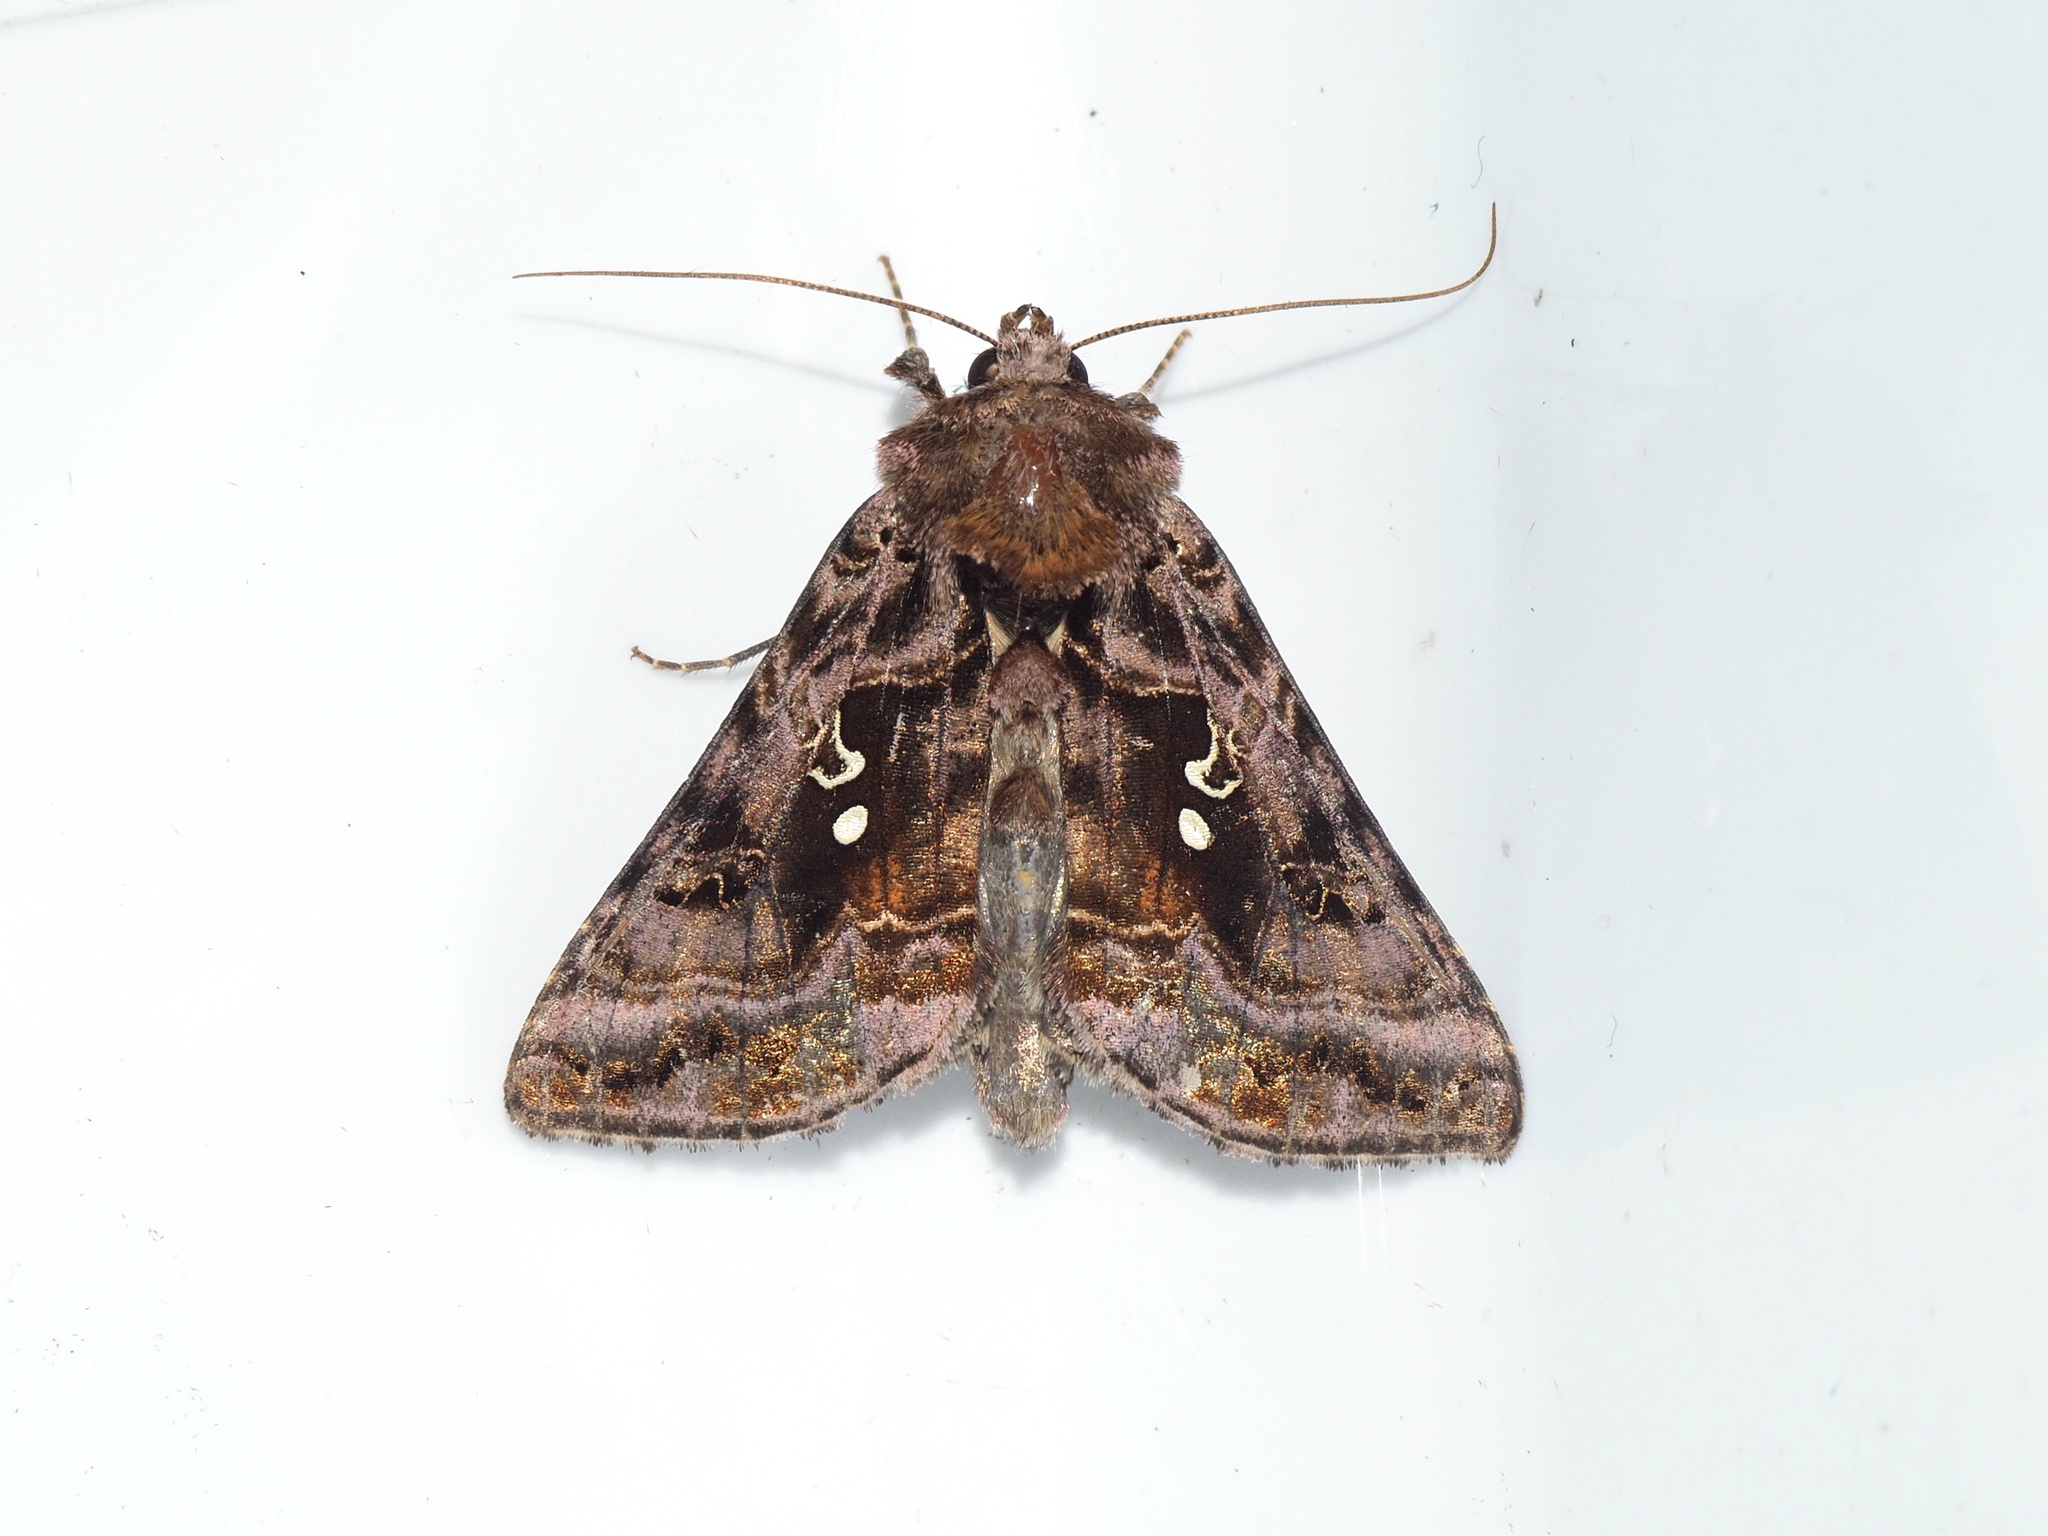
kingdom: Animalia
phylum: Arthropoda
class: Insecta
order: Lepidoptera
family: Noctuidae
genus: Autographa
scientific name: Autographa pulchrina
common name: Beautiful golden y
